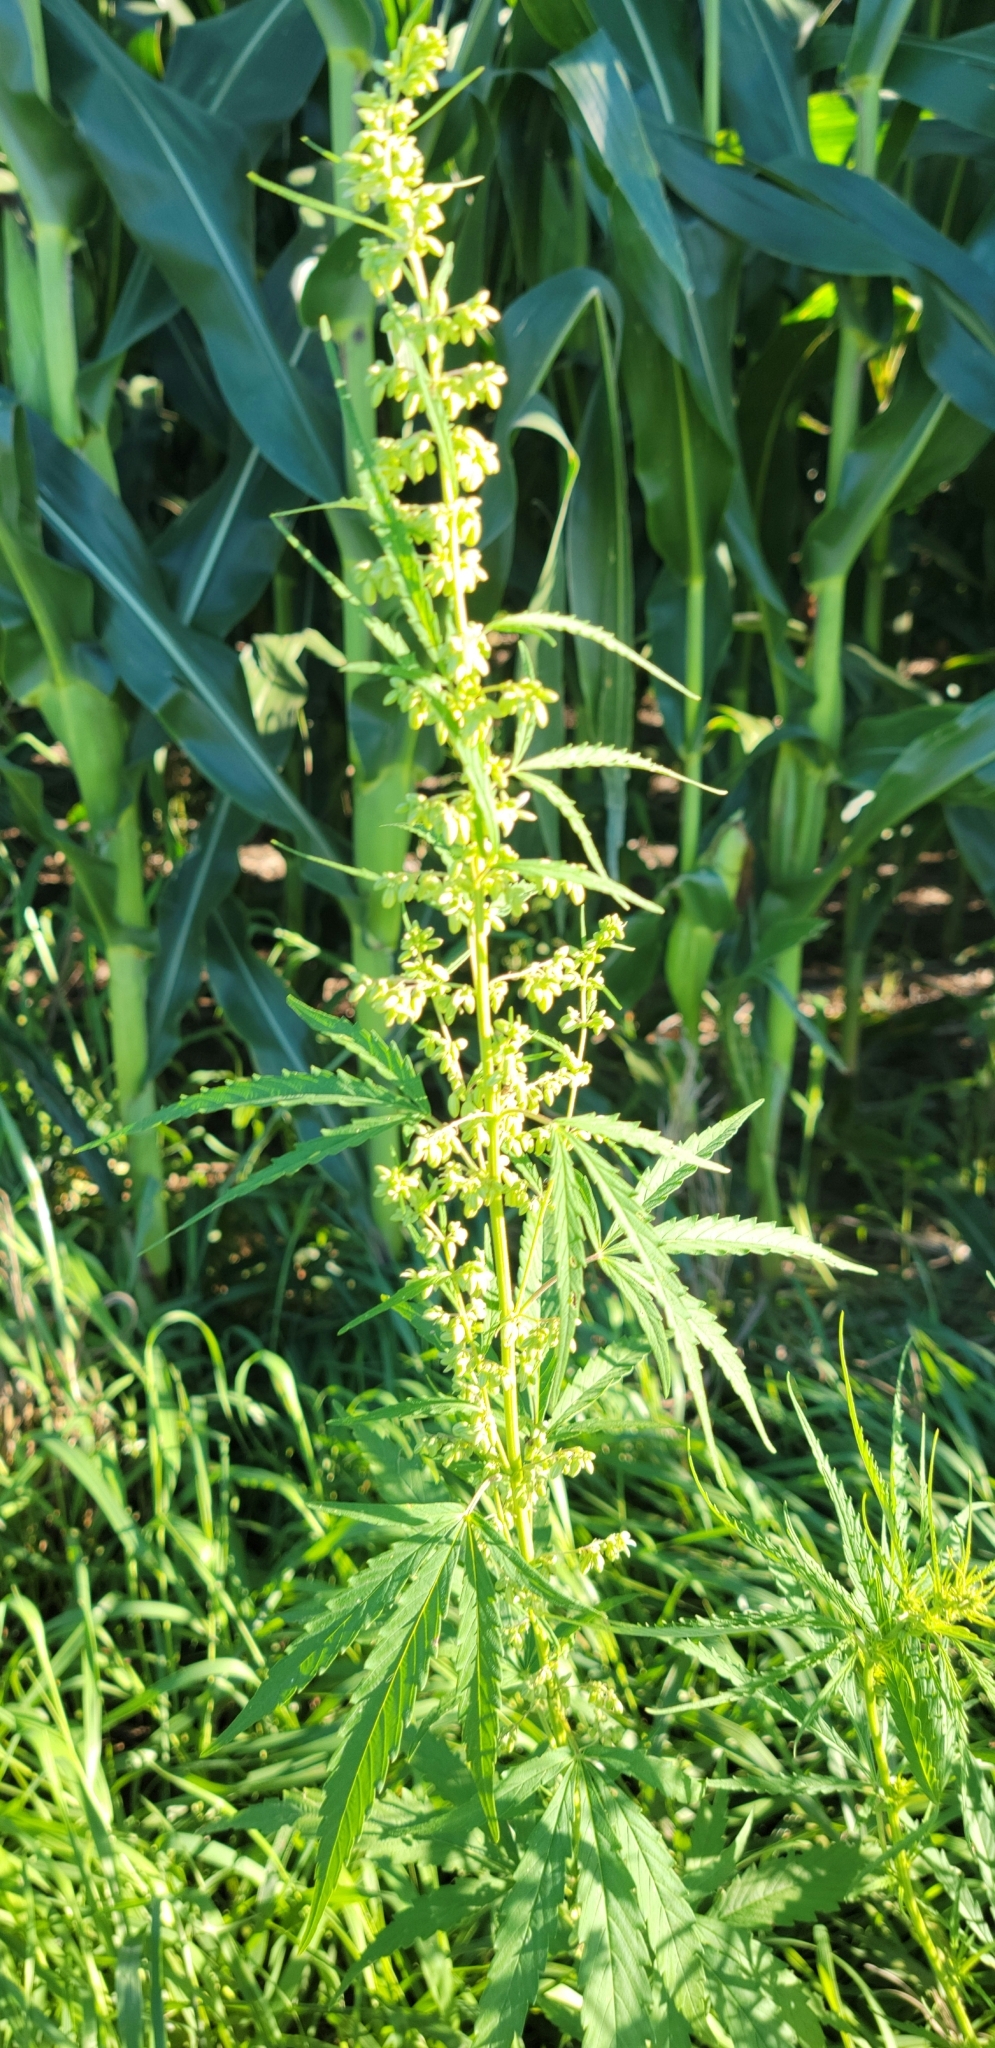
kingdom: Plantae
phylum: Tracheophyta
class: Magnoliopsida
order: Rosales
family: Cannabaceae
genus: Cannabis
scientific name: Cannabis sativa
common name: Hemp
